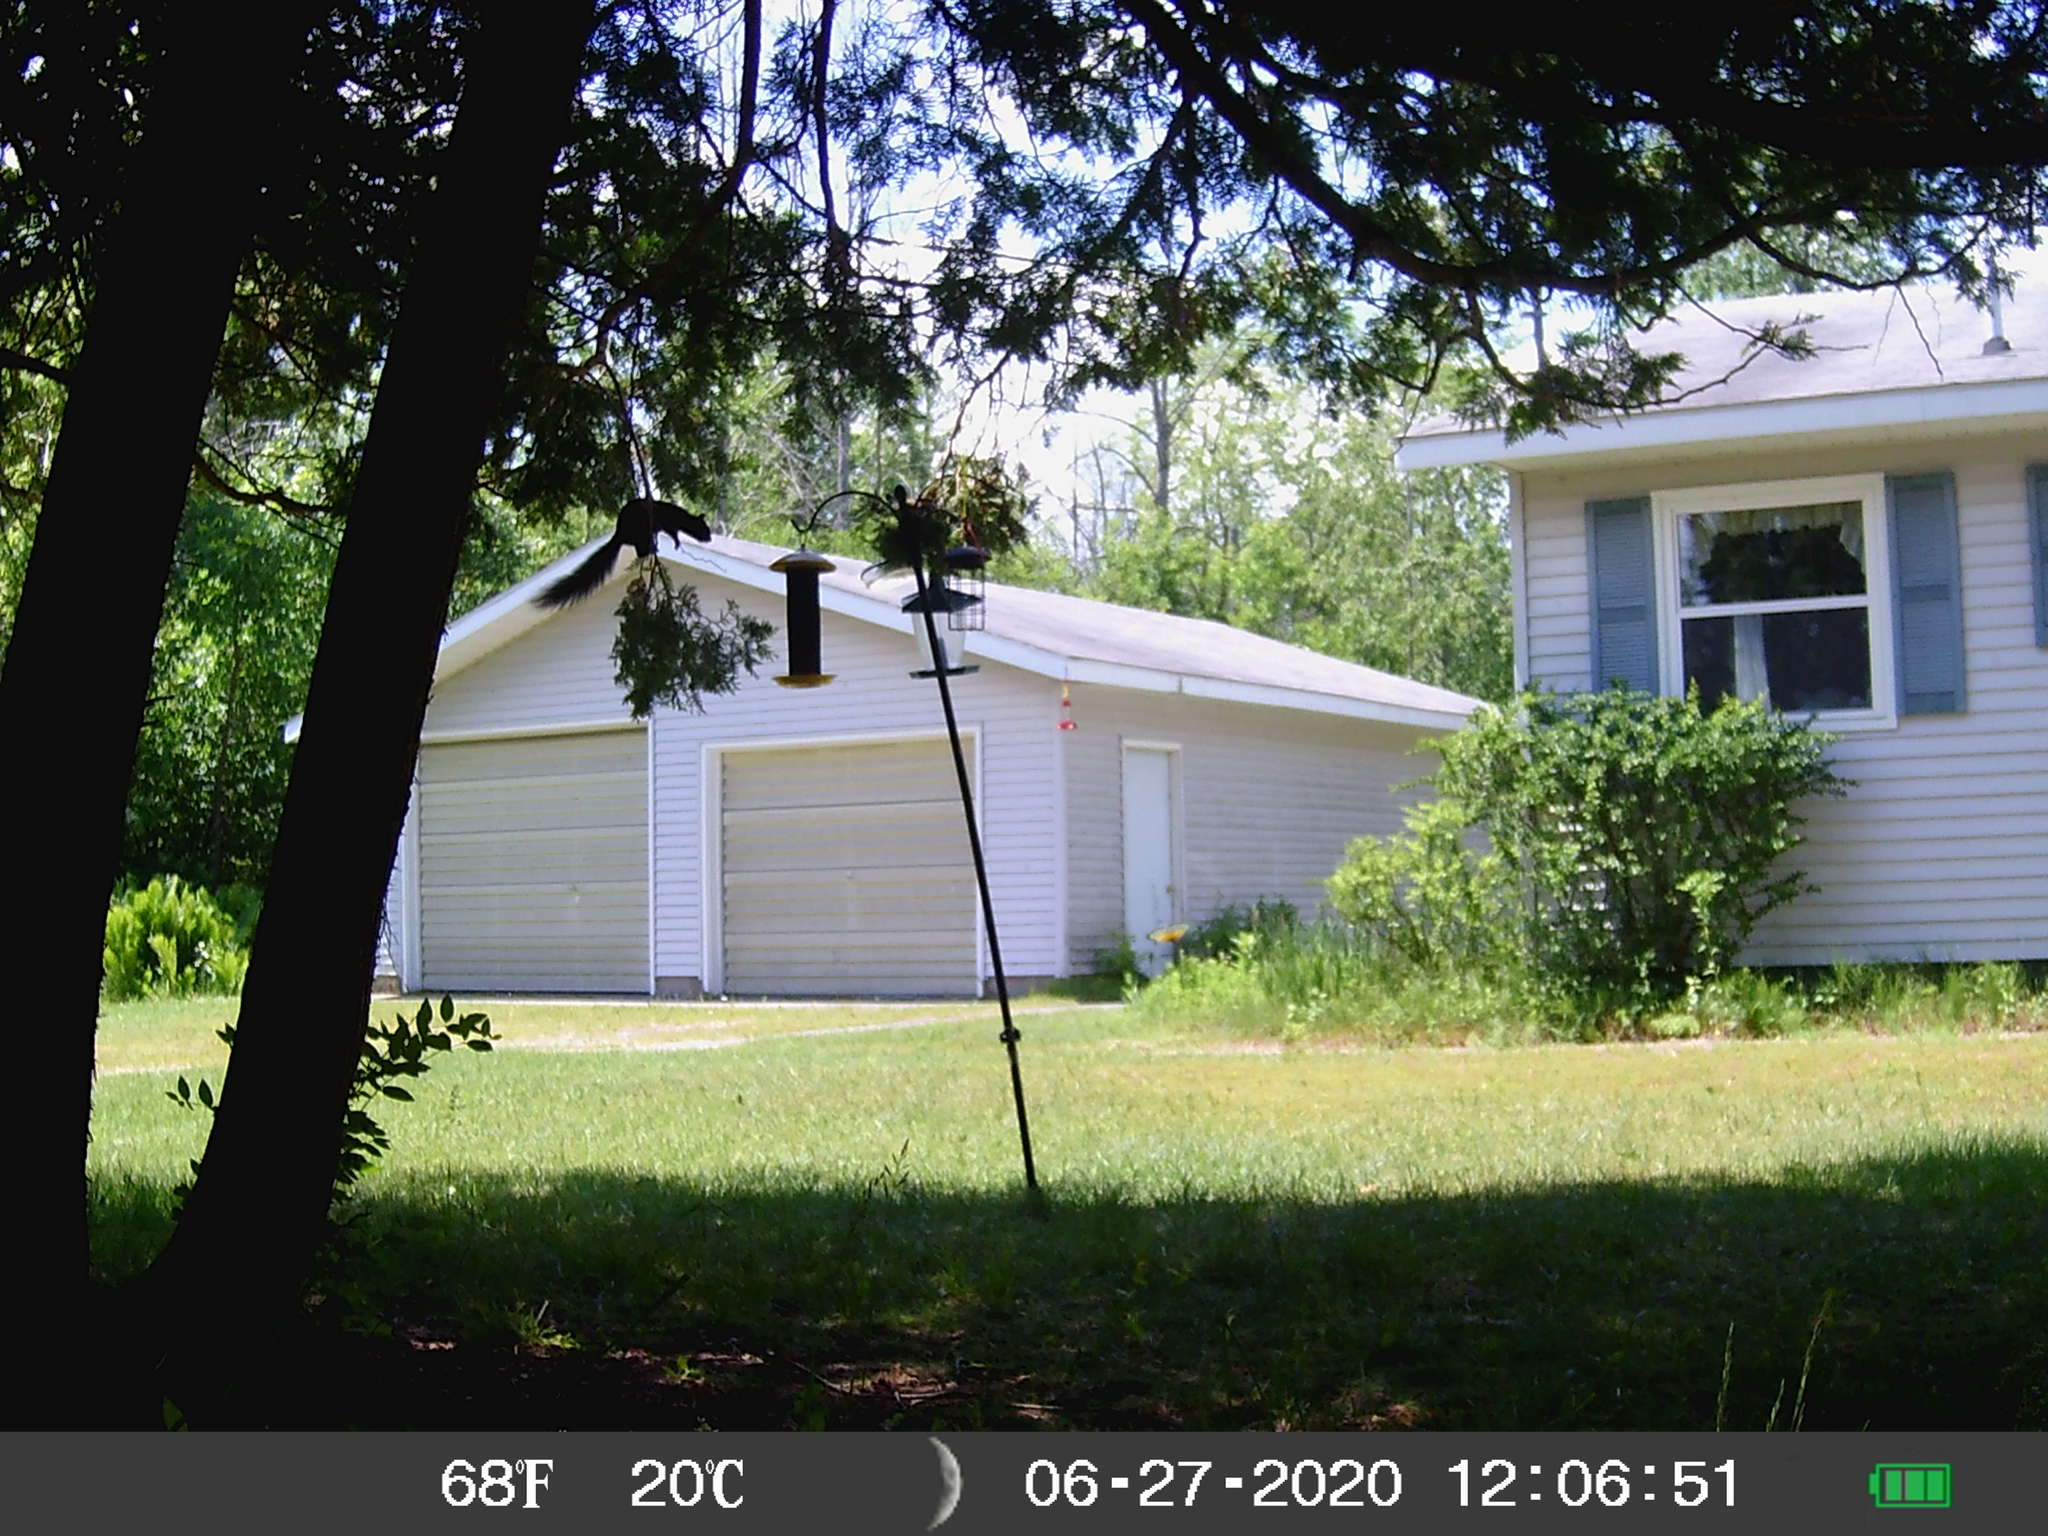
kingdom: Animalia
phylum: Chordata
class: Mammalia
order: Rodentia
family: Sciuridae
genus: Sciurus
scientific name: Sciurus carolinensis
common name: Eastern gray squirrel
